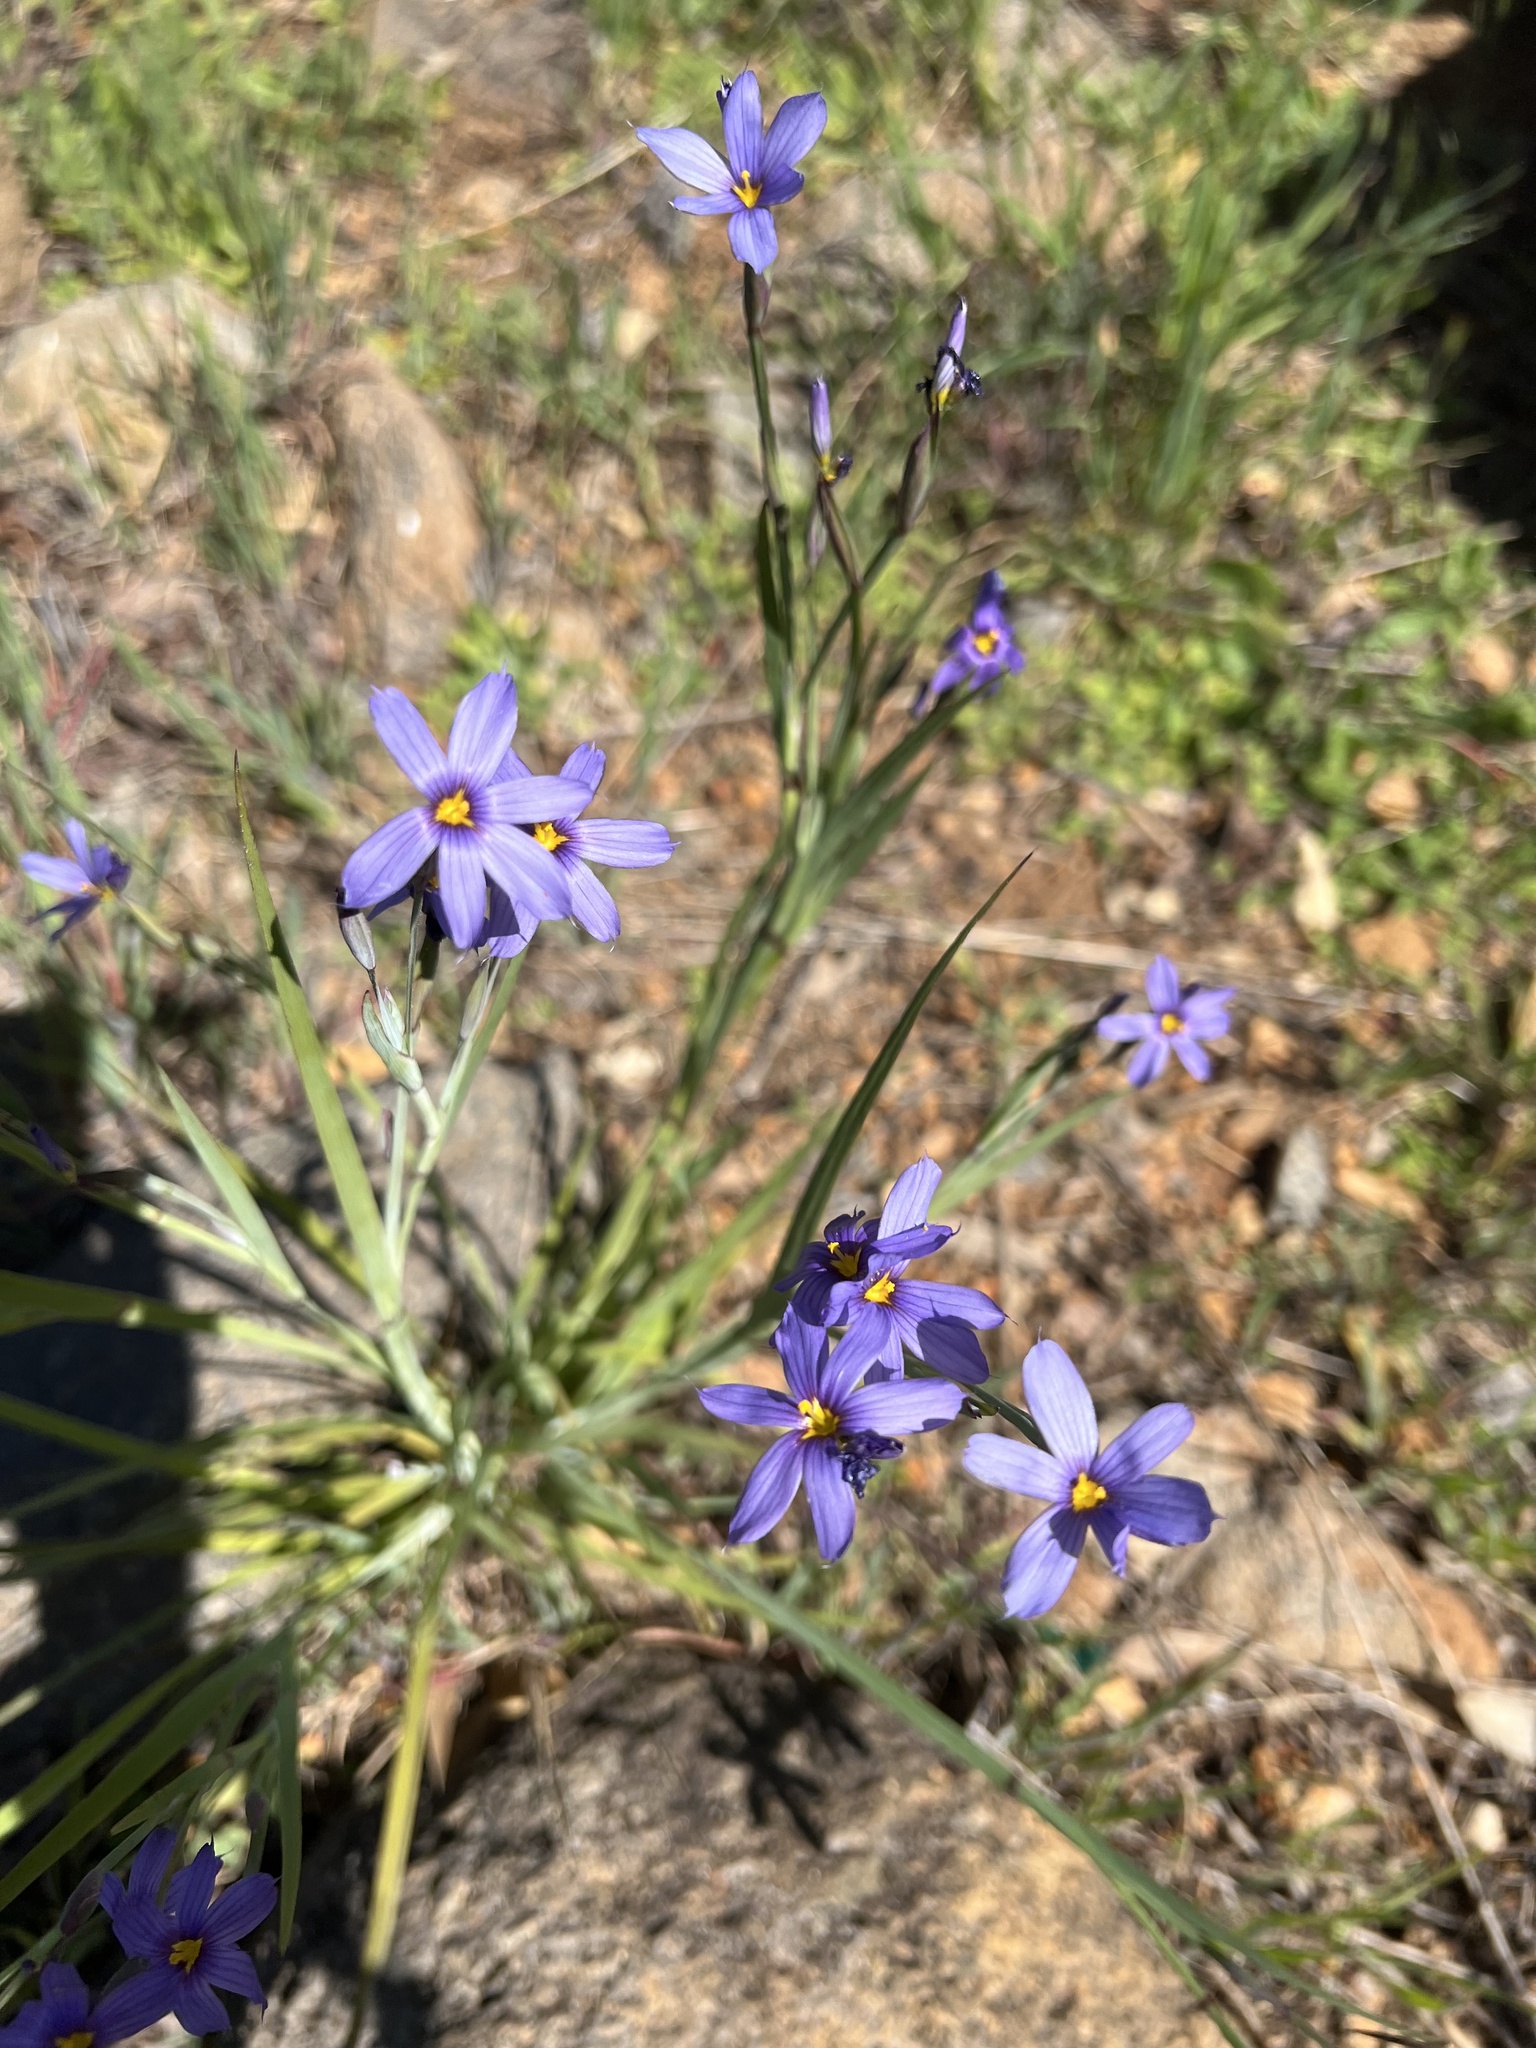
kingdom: Plantae
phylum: Tracheophyta
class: Liliopsida
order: Asparagales
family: Iridaceae
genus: Sisyrinchium
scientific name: Sisyrinchium bellum
